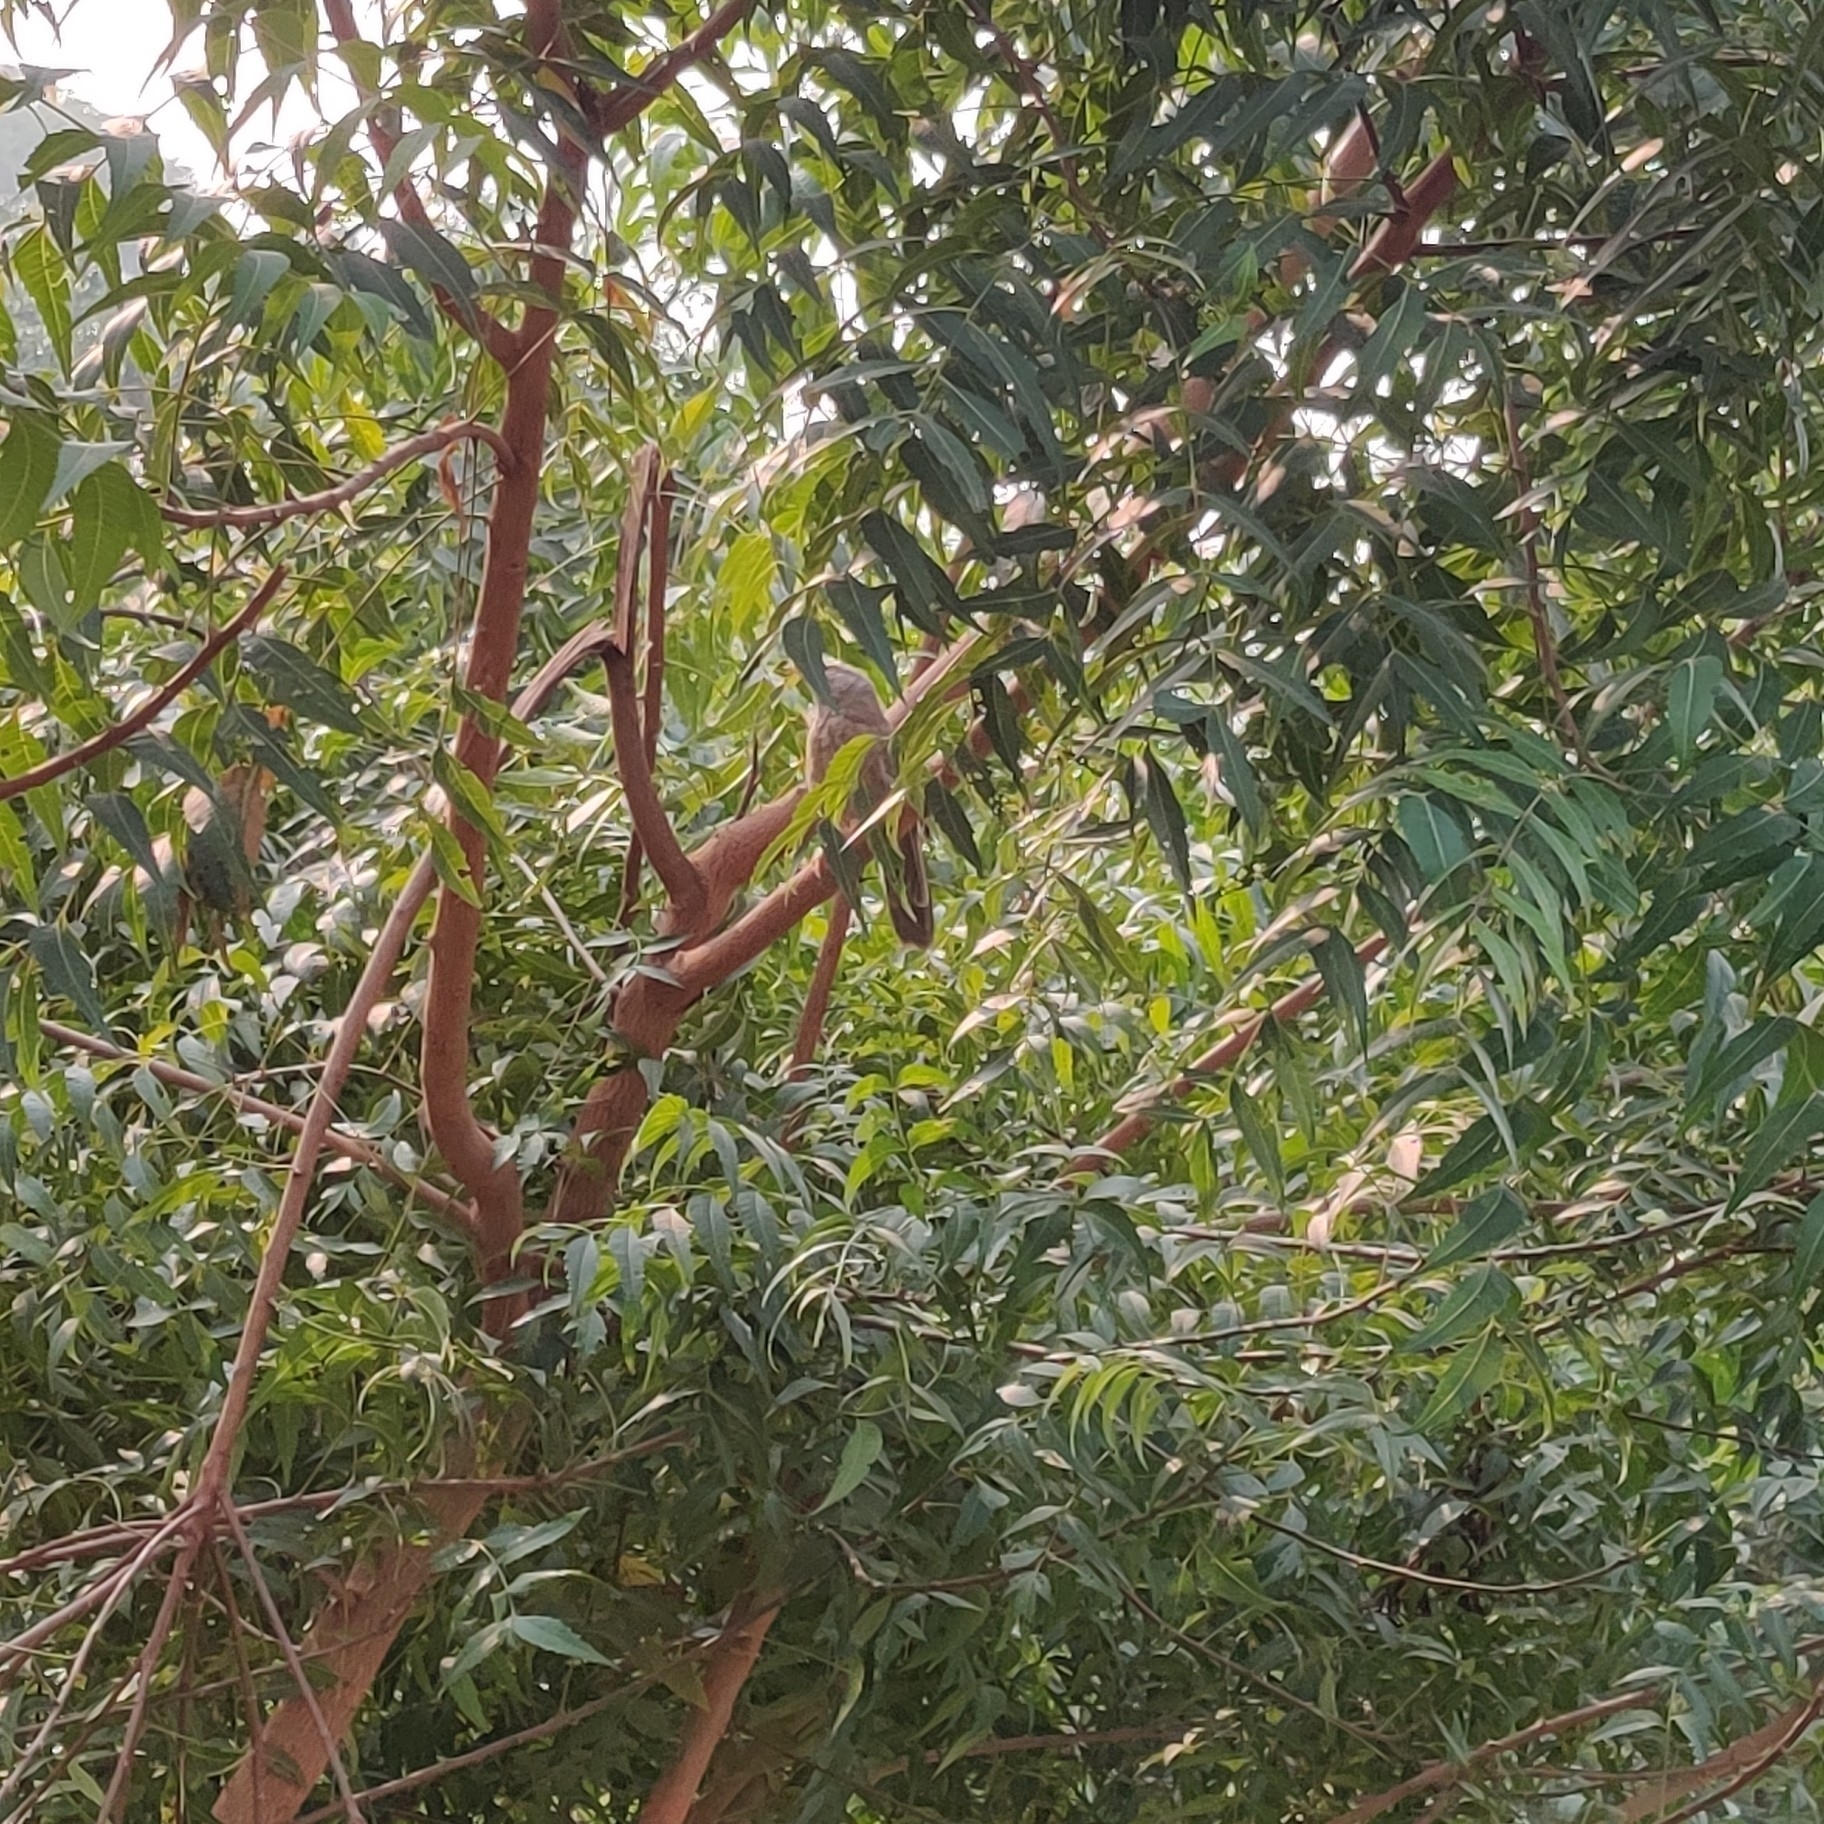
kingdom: Animalia
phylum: Chordata
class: Aves
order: Passeriformes
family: Leiothrichidae
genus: Turdoides
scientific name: Turdoides striata
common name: Jungle babbler
